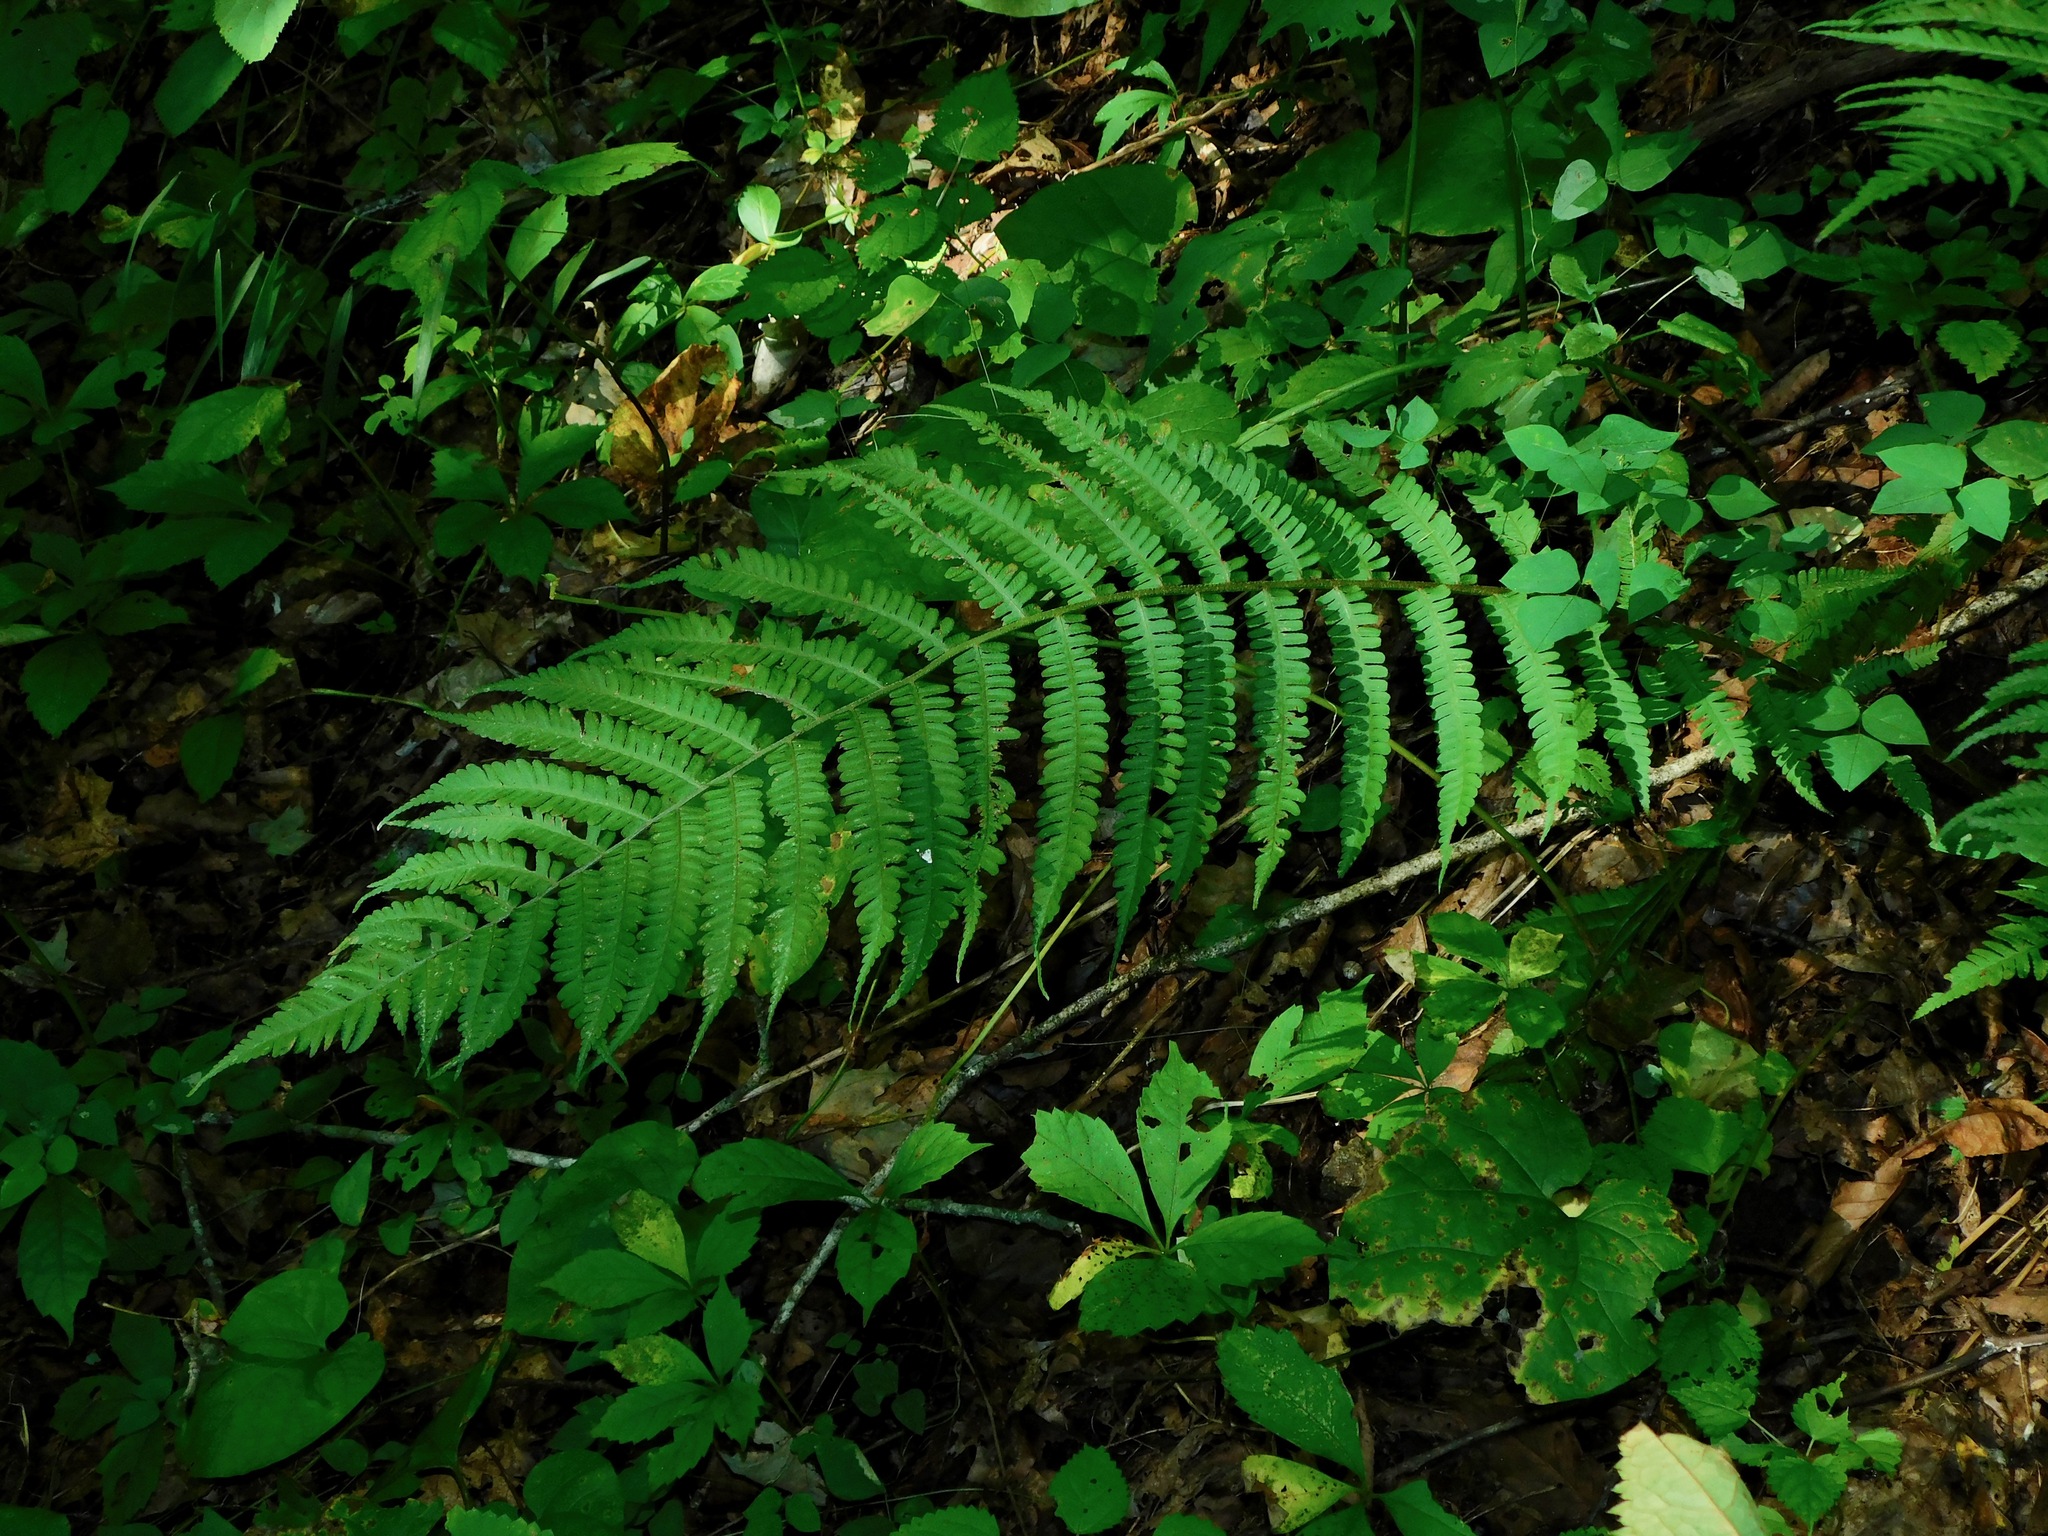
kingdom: Plantae
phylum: Tracheophyta
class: Polypodiopsida
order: Polypodiales
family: Athyriaceae
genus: Deparia
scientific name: Deparia acrostichoides
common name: Silver false spleenwort
